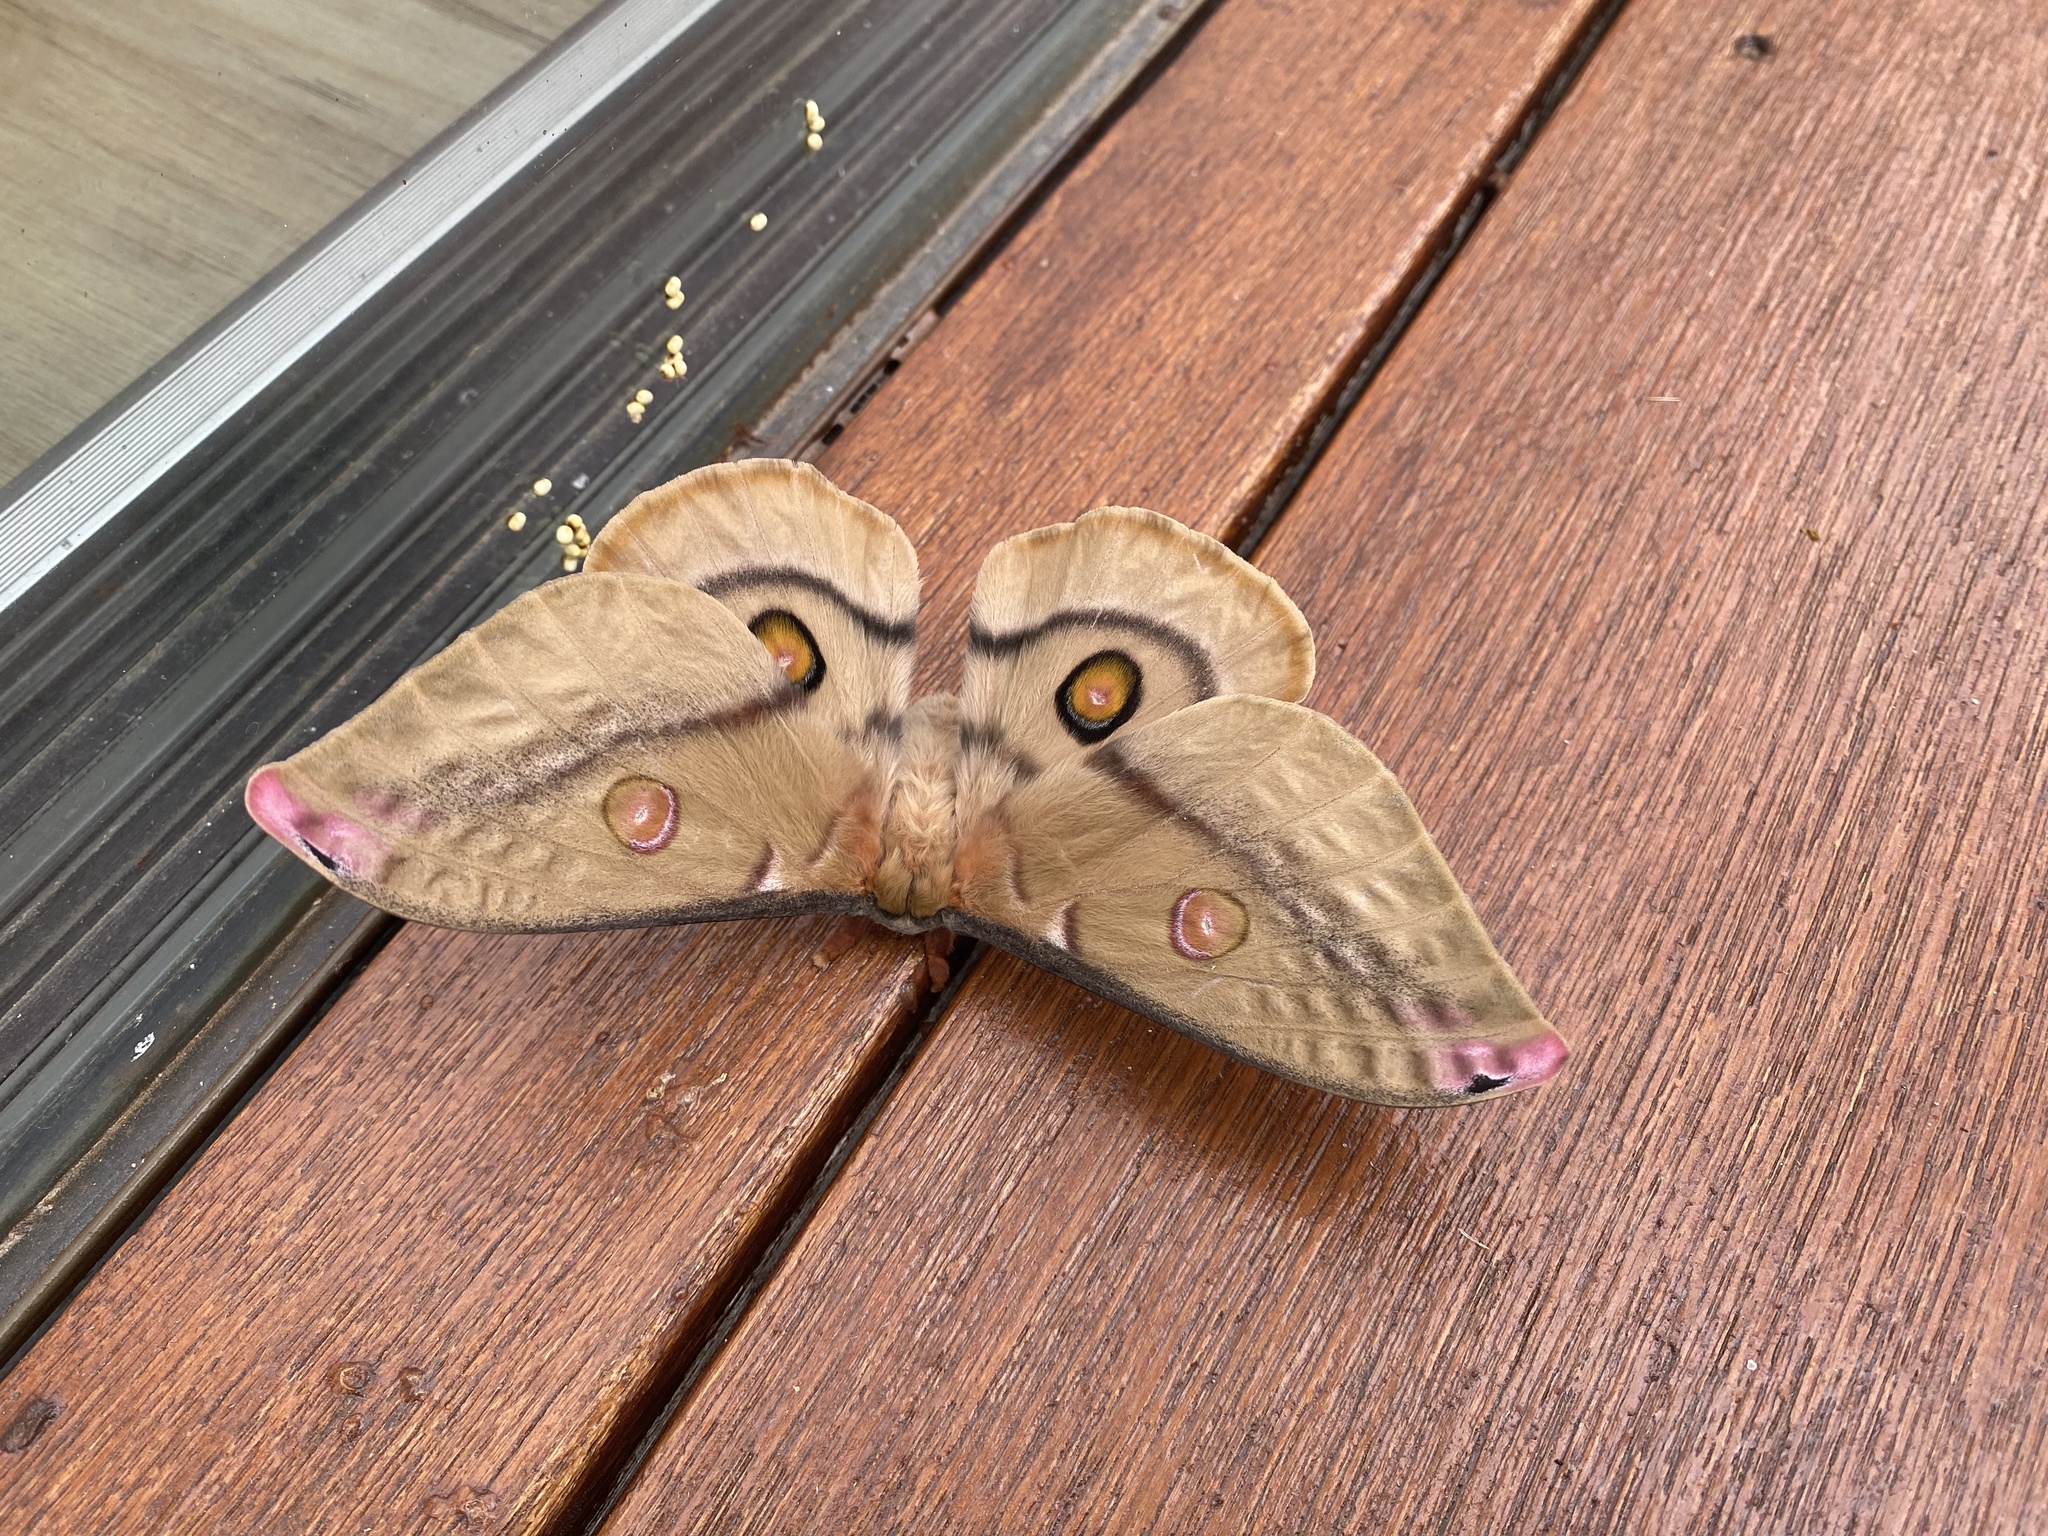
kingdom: Animalia
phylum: Arthropoda
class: Insecta
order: Lepidoptera
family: Saturniidae
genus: Opodiphthera
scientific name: Opodiphthera
